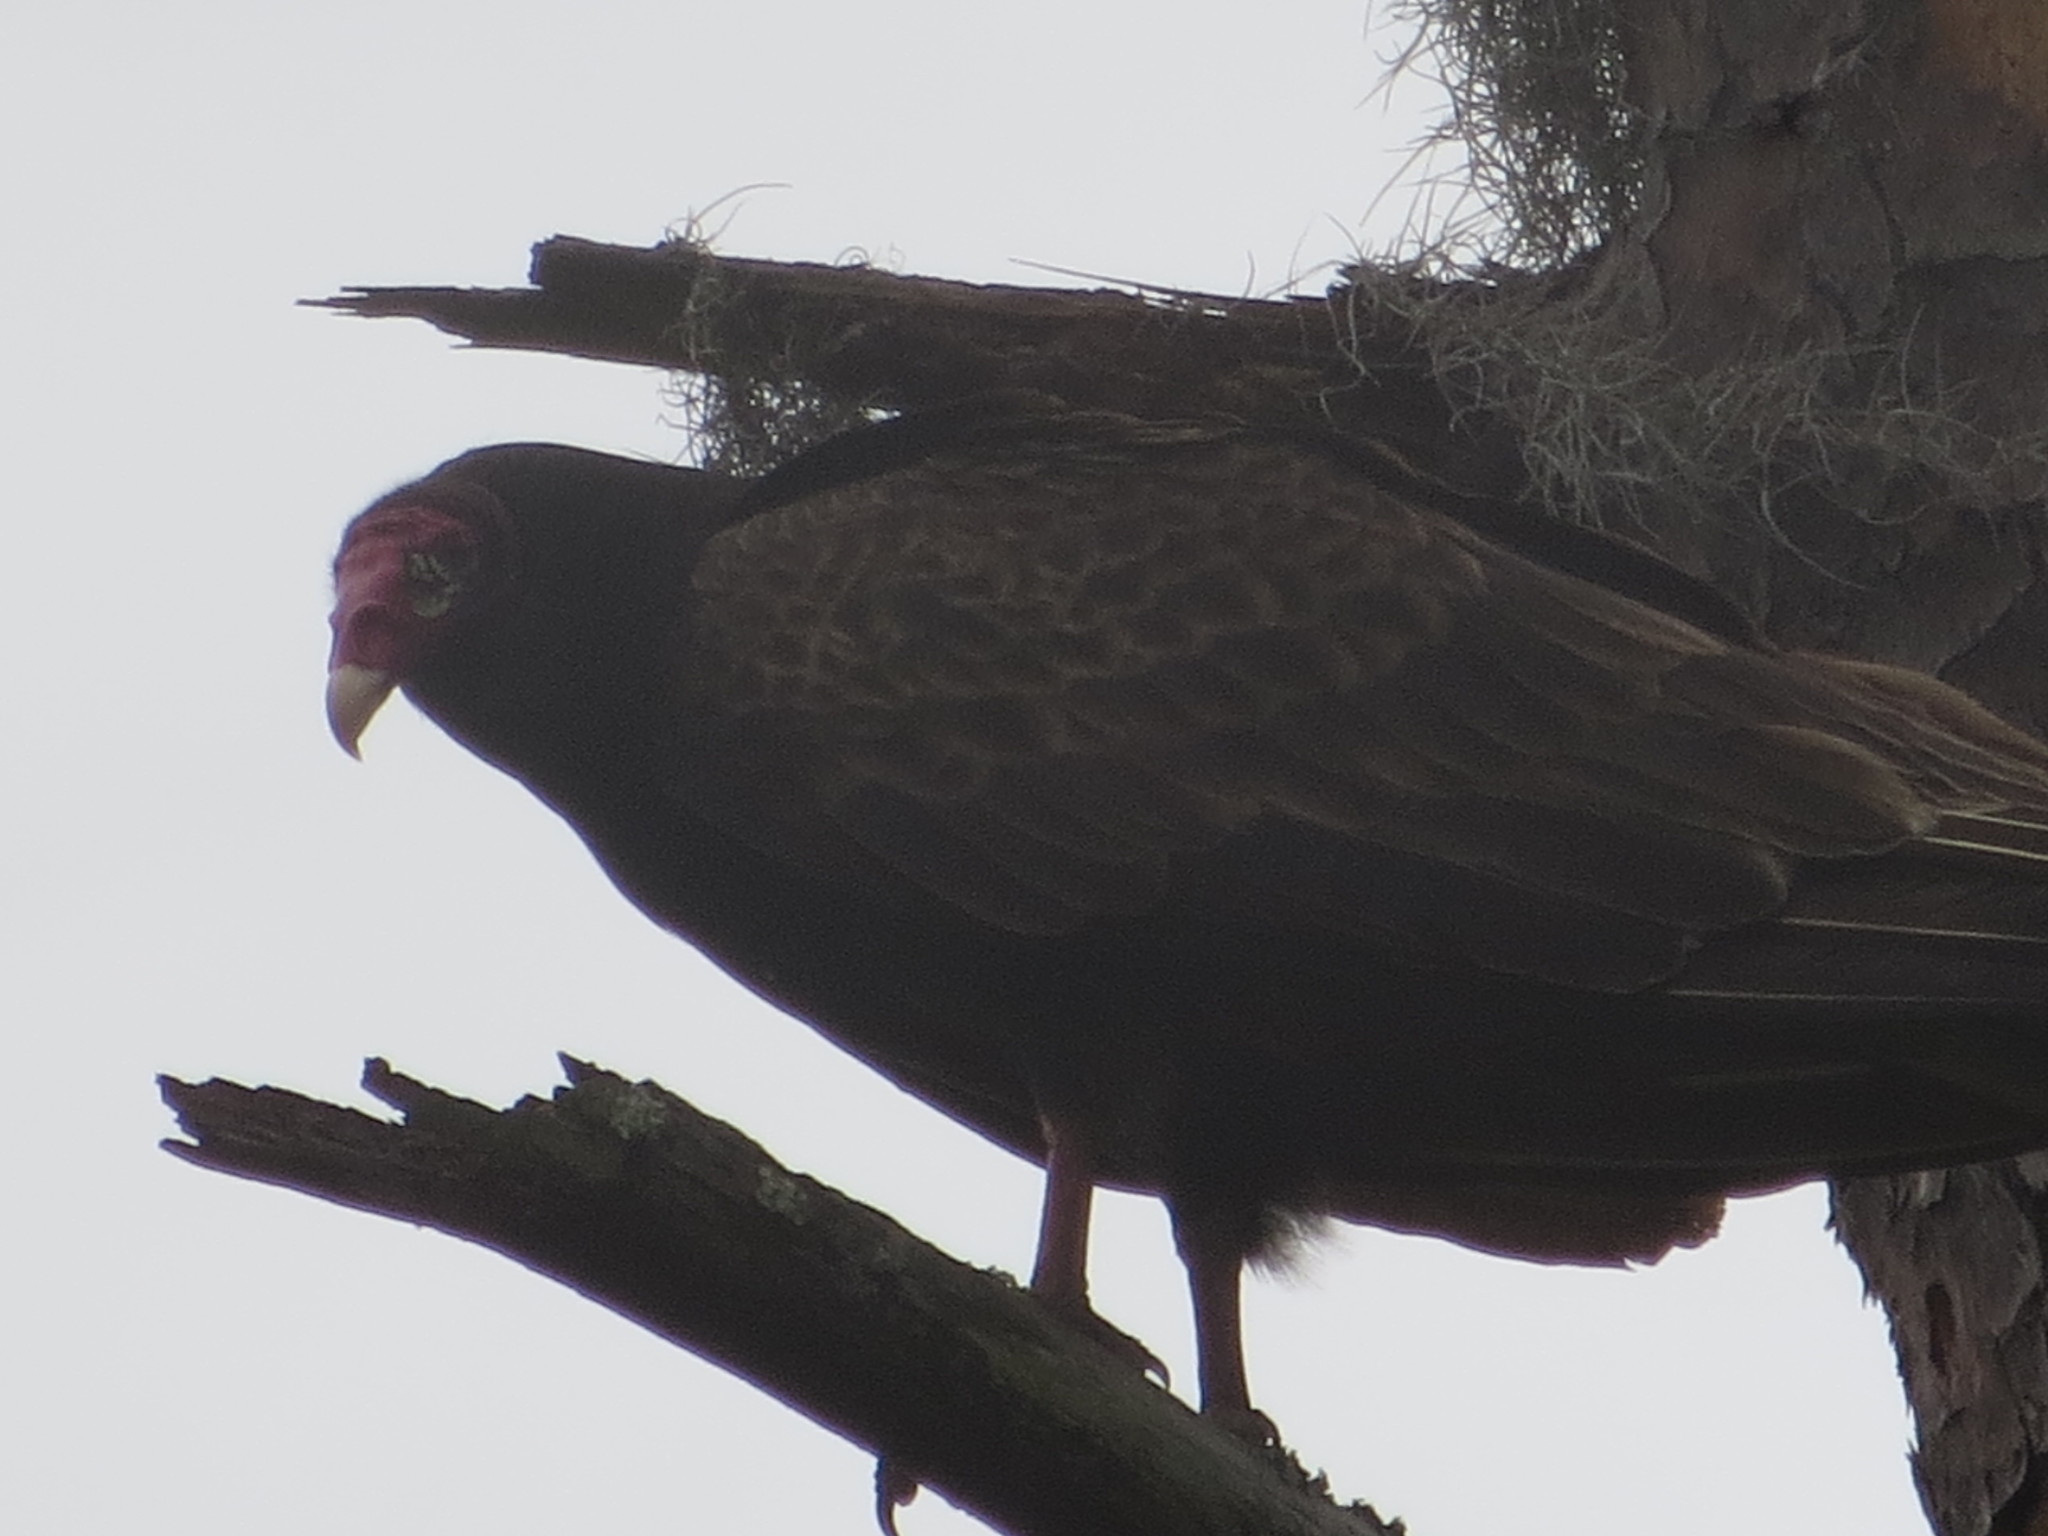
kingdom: Animalia
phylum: Chordata
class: Aves
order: Accipitriformes
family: Cathartidae
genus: Cathartes
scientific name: Cathartes aura
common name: Turkey vulture
